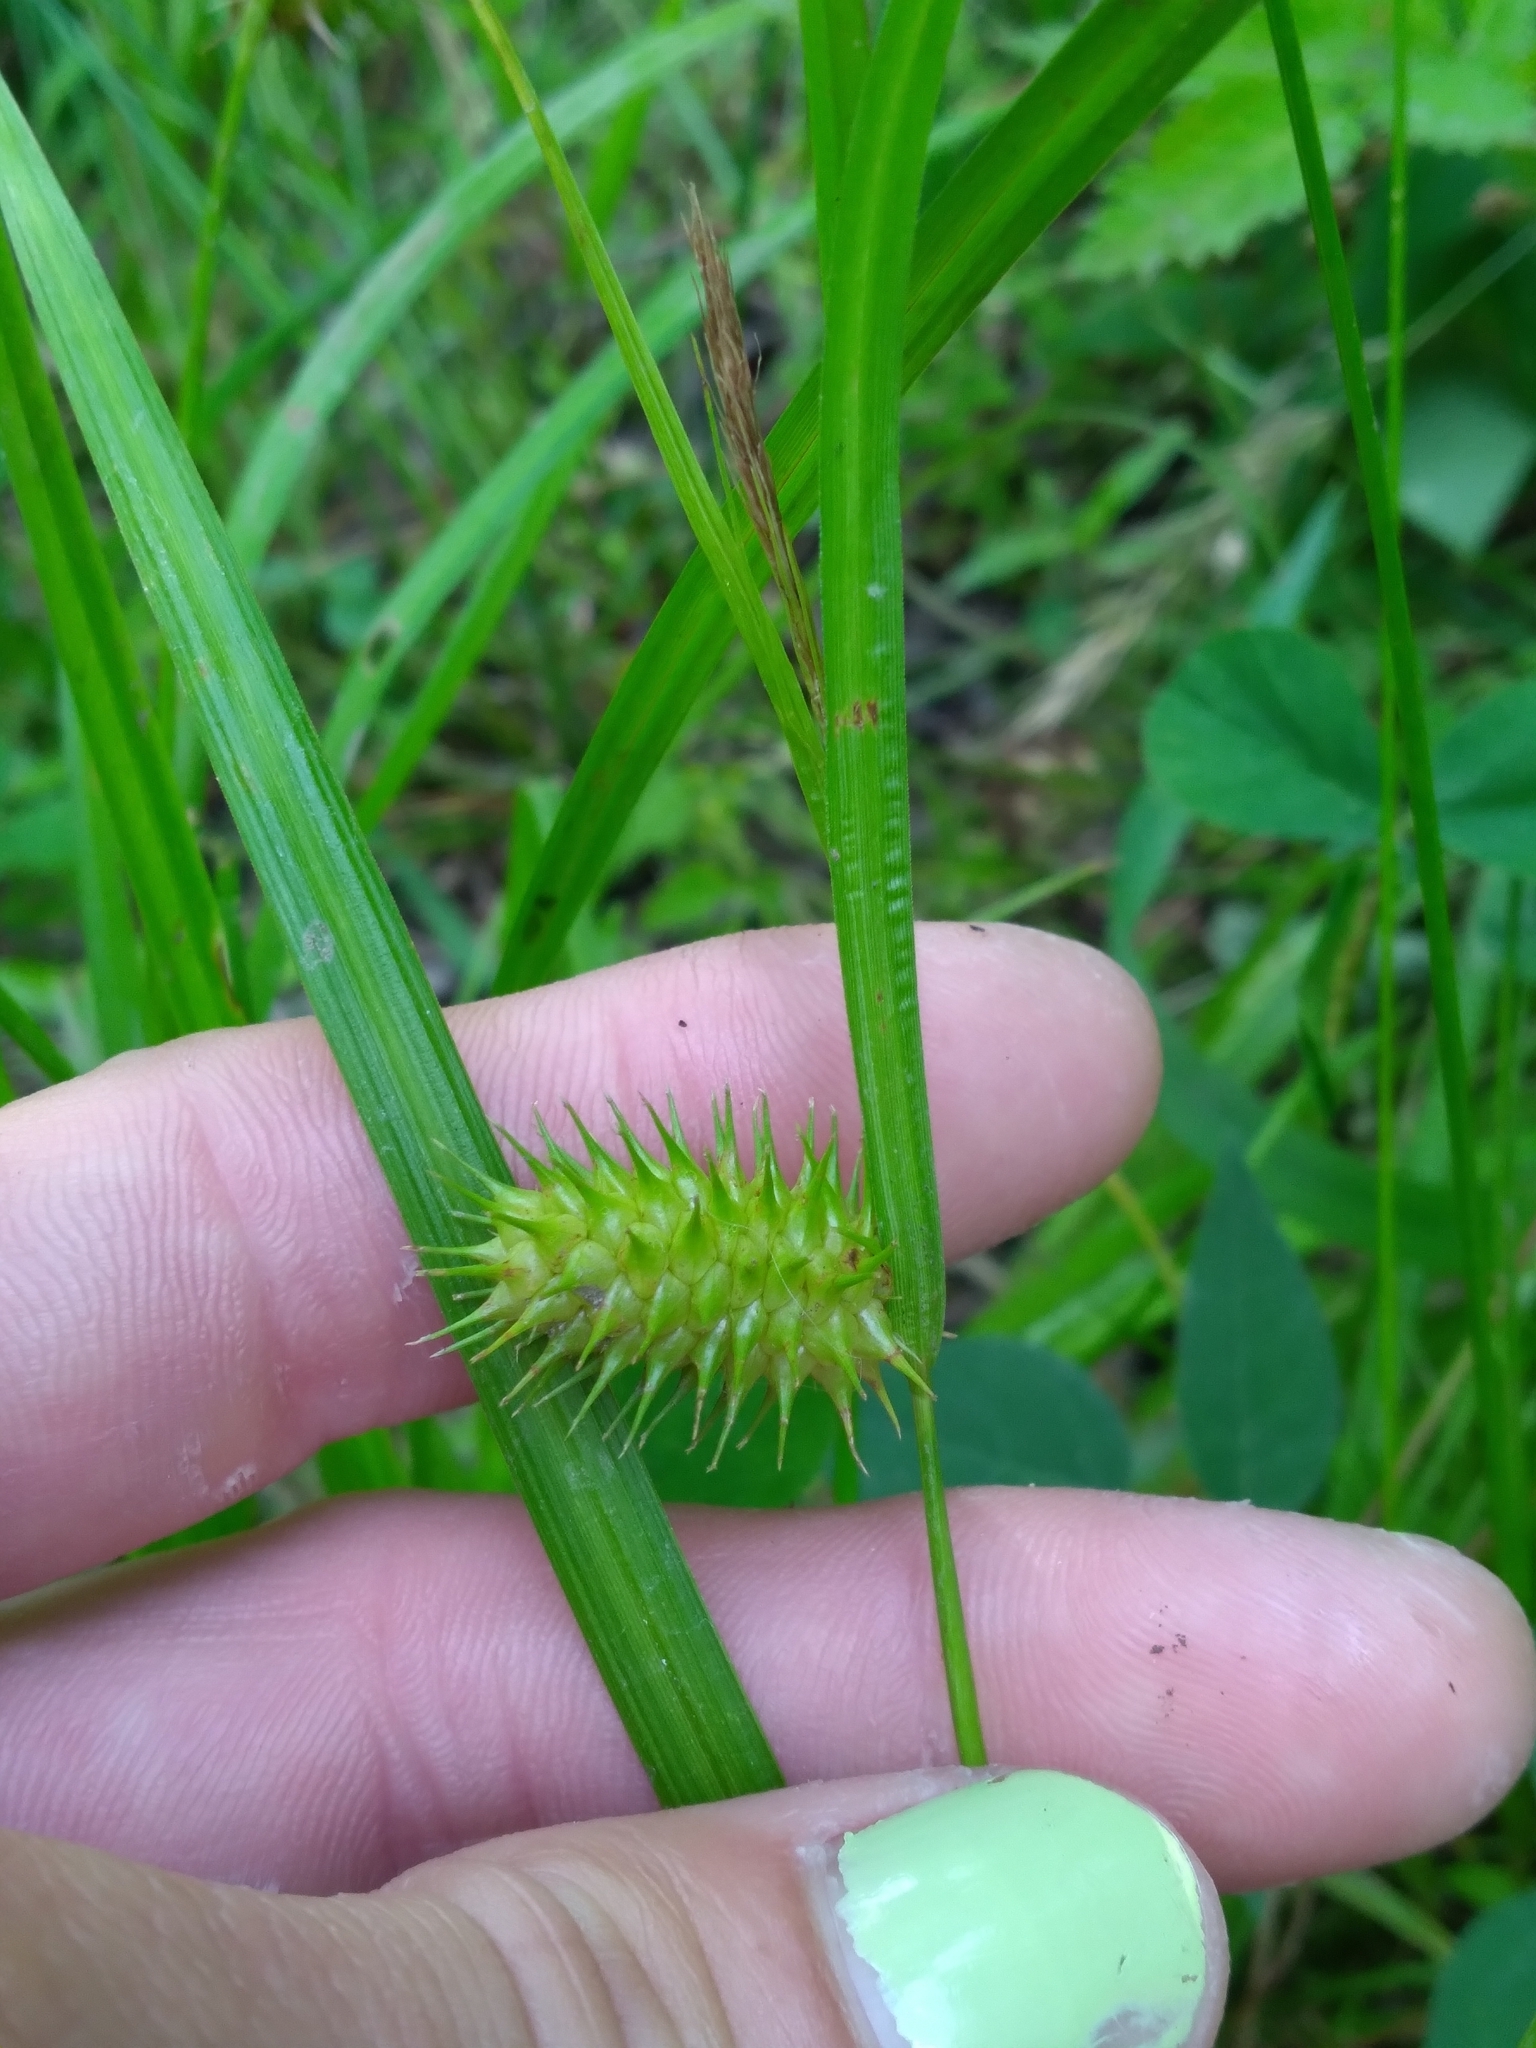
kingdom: Plantae
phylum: Tracheophyta
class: Liliopsida
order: Poales
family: Cyperaceae
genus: Carex
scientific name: Carex lurida
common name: Sallow sedge
